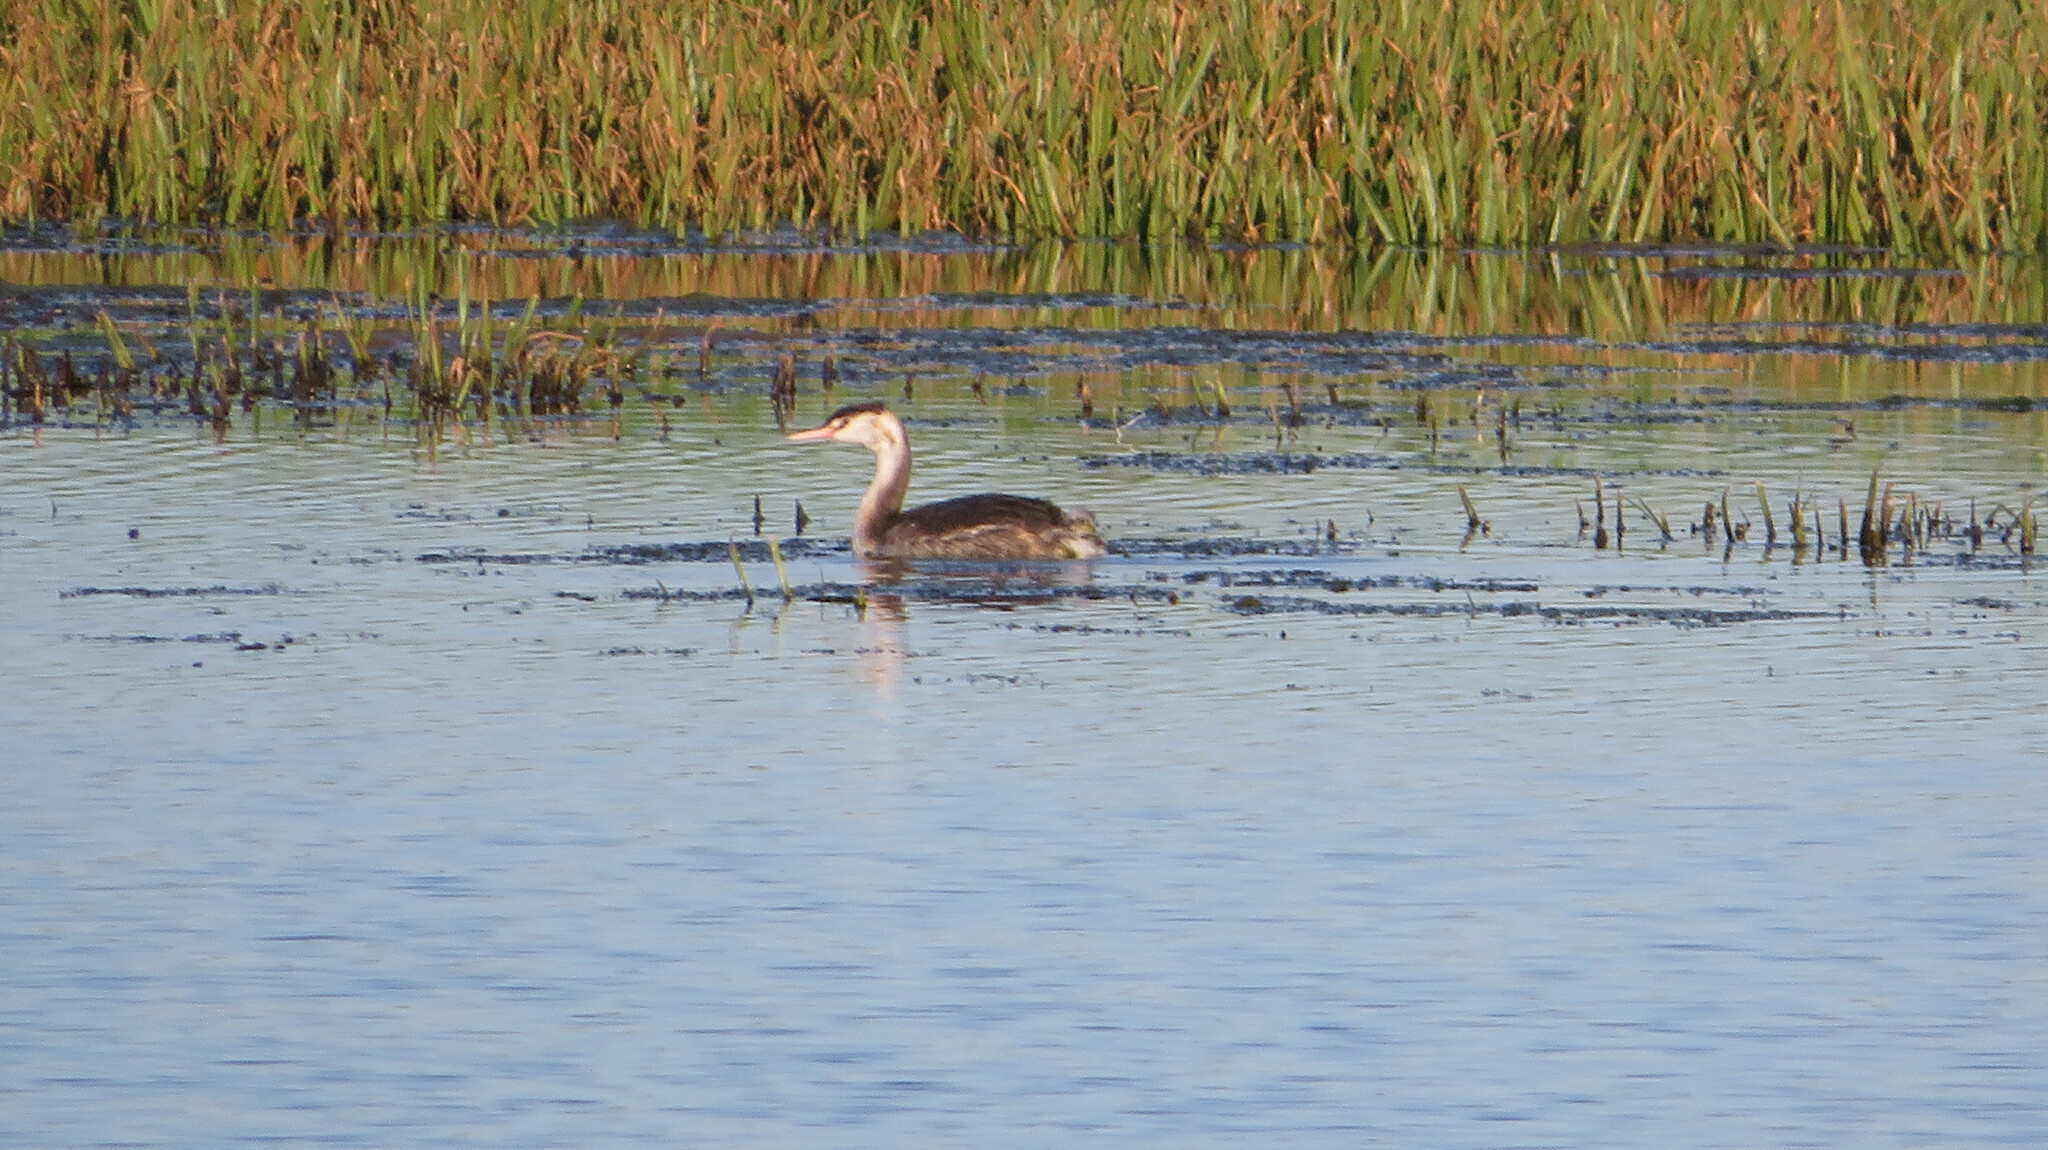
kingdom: Animalia
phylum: Chordata
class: Aves
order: Podicipediformes
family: Podicipedidae
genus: Podiceps
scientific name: Podiceps cristatus
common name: Great crested grebe
